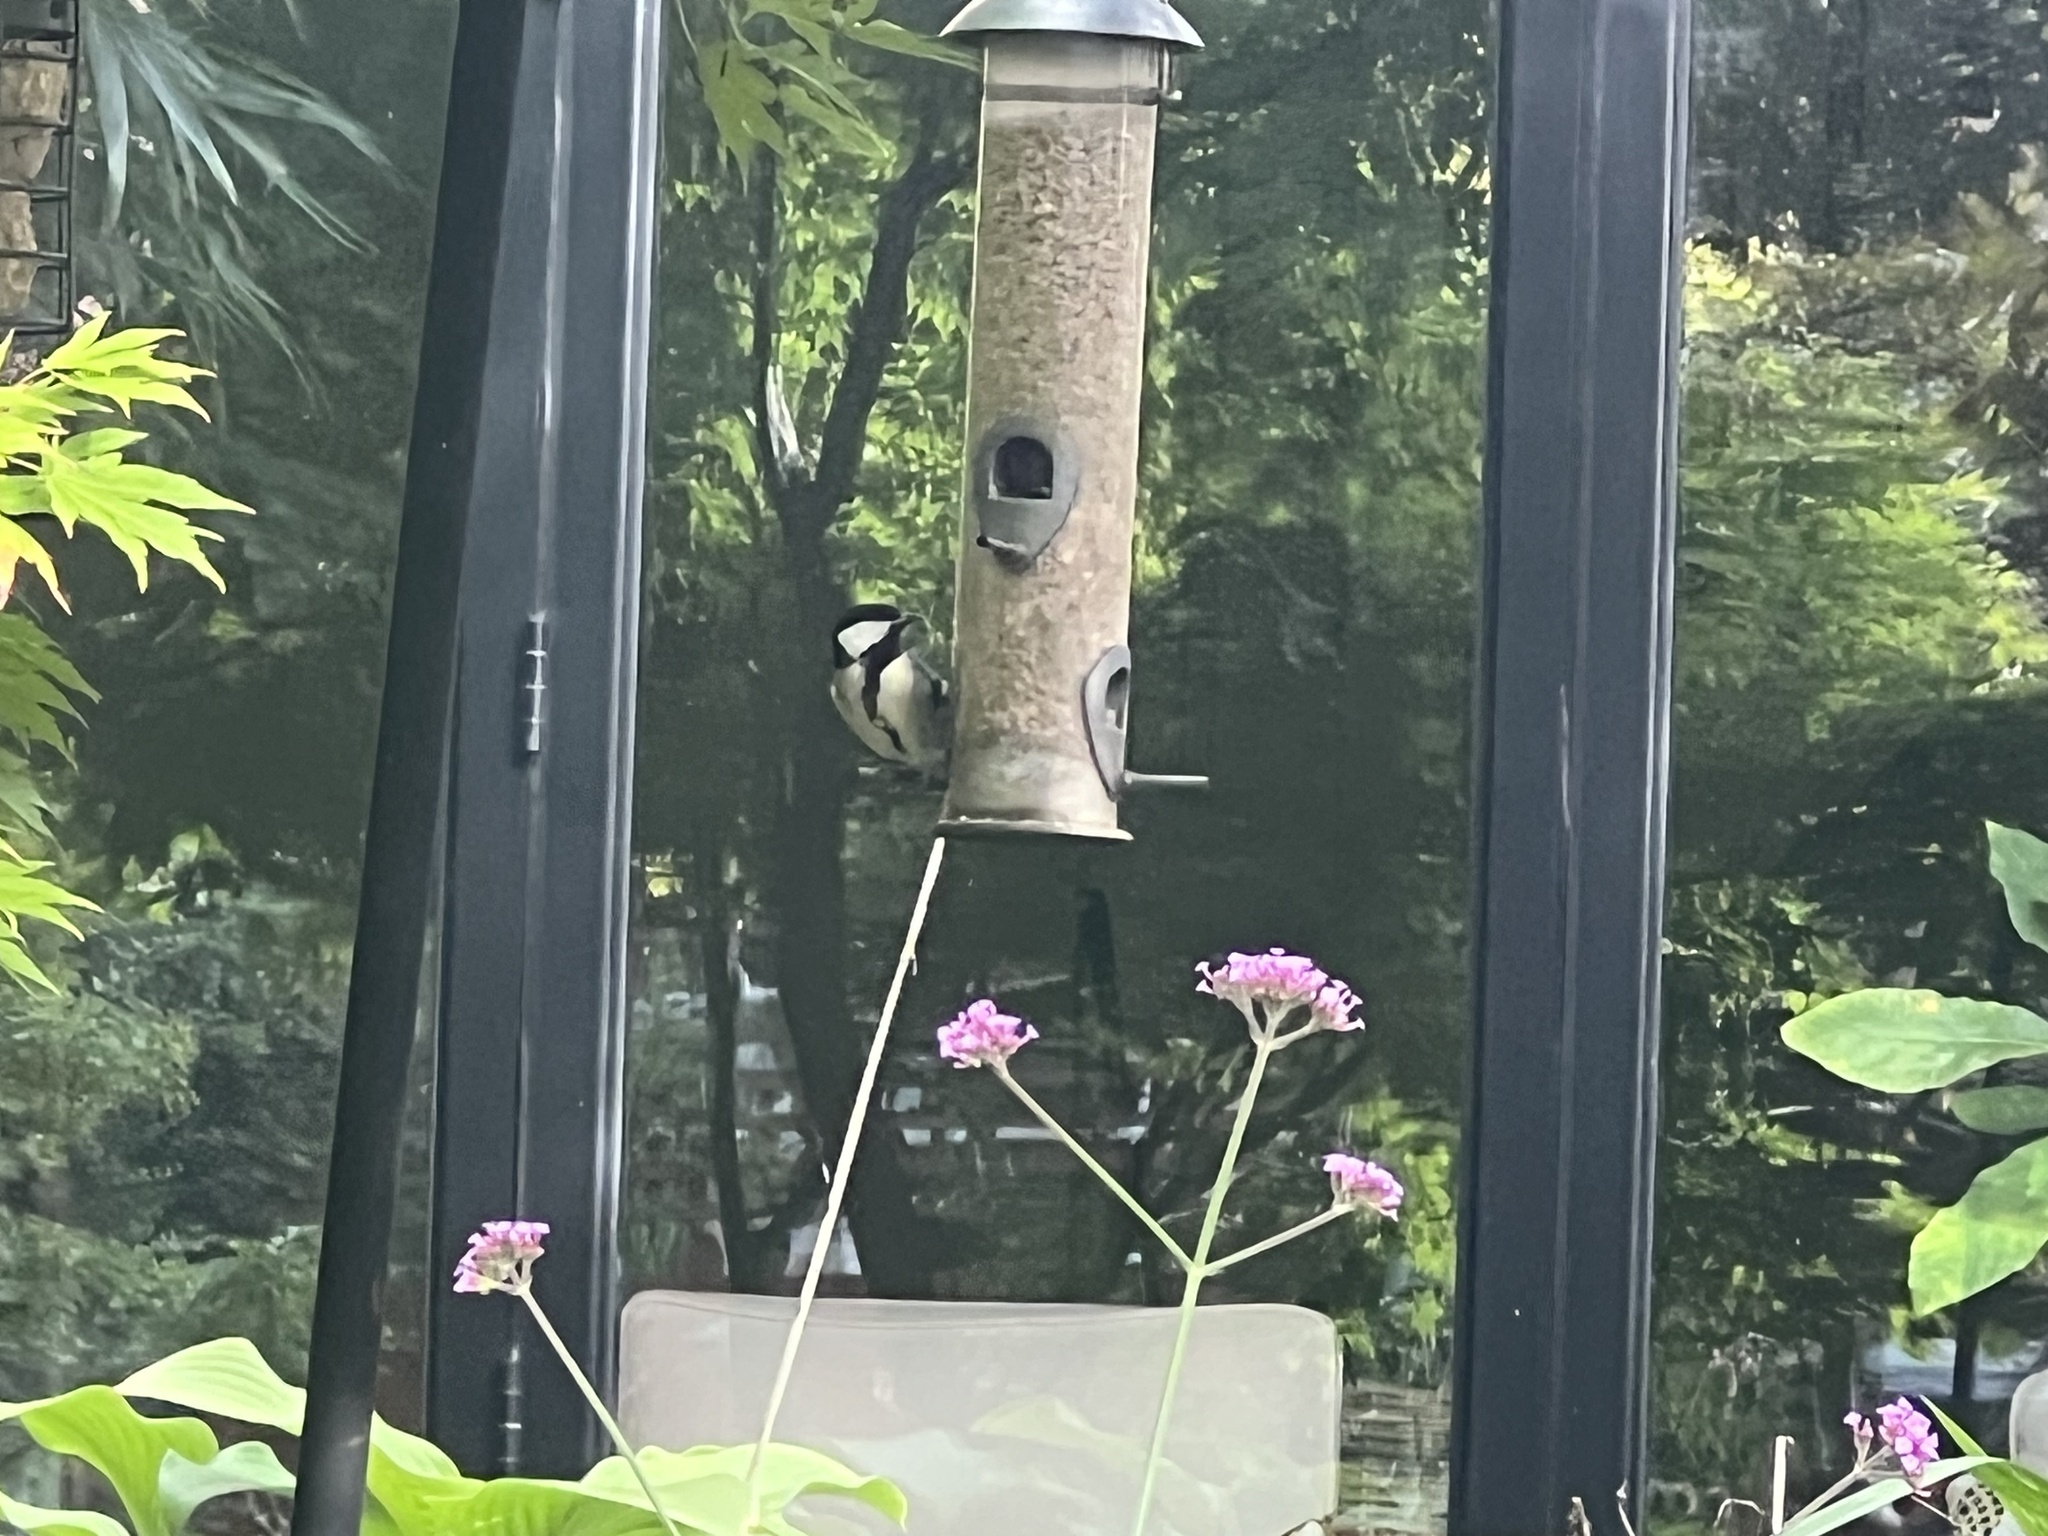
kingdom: Animalia
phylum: Chordata
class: Aves
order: Passeriformes
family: Paridae
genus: Parus
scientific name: Parus major
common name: Great tit
